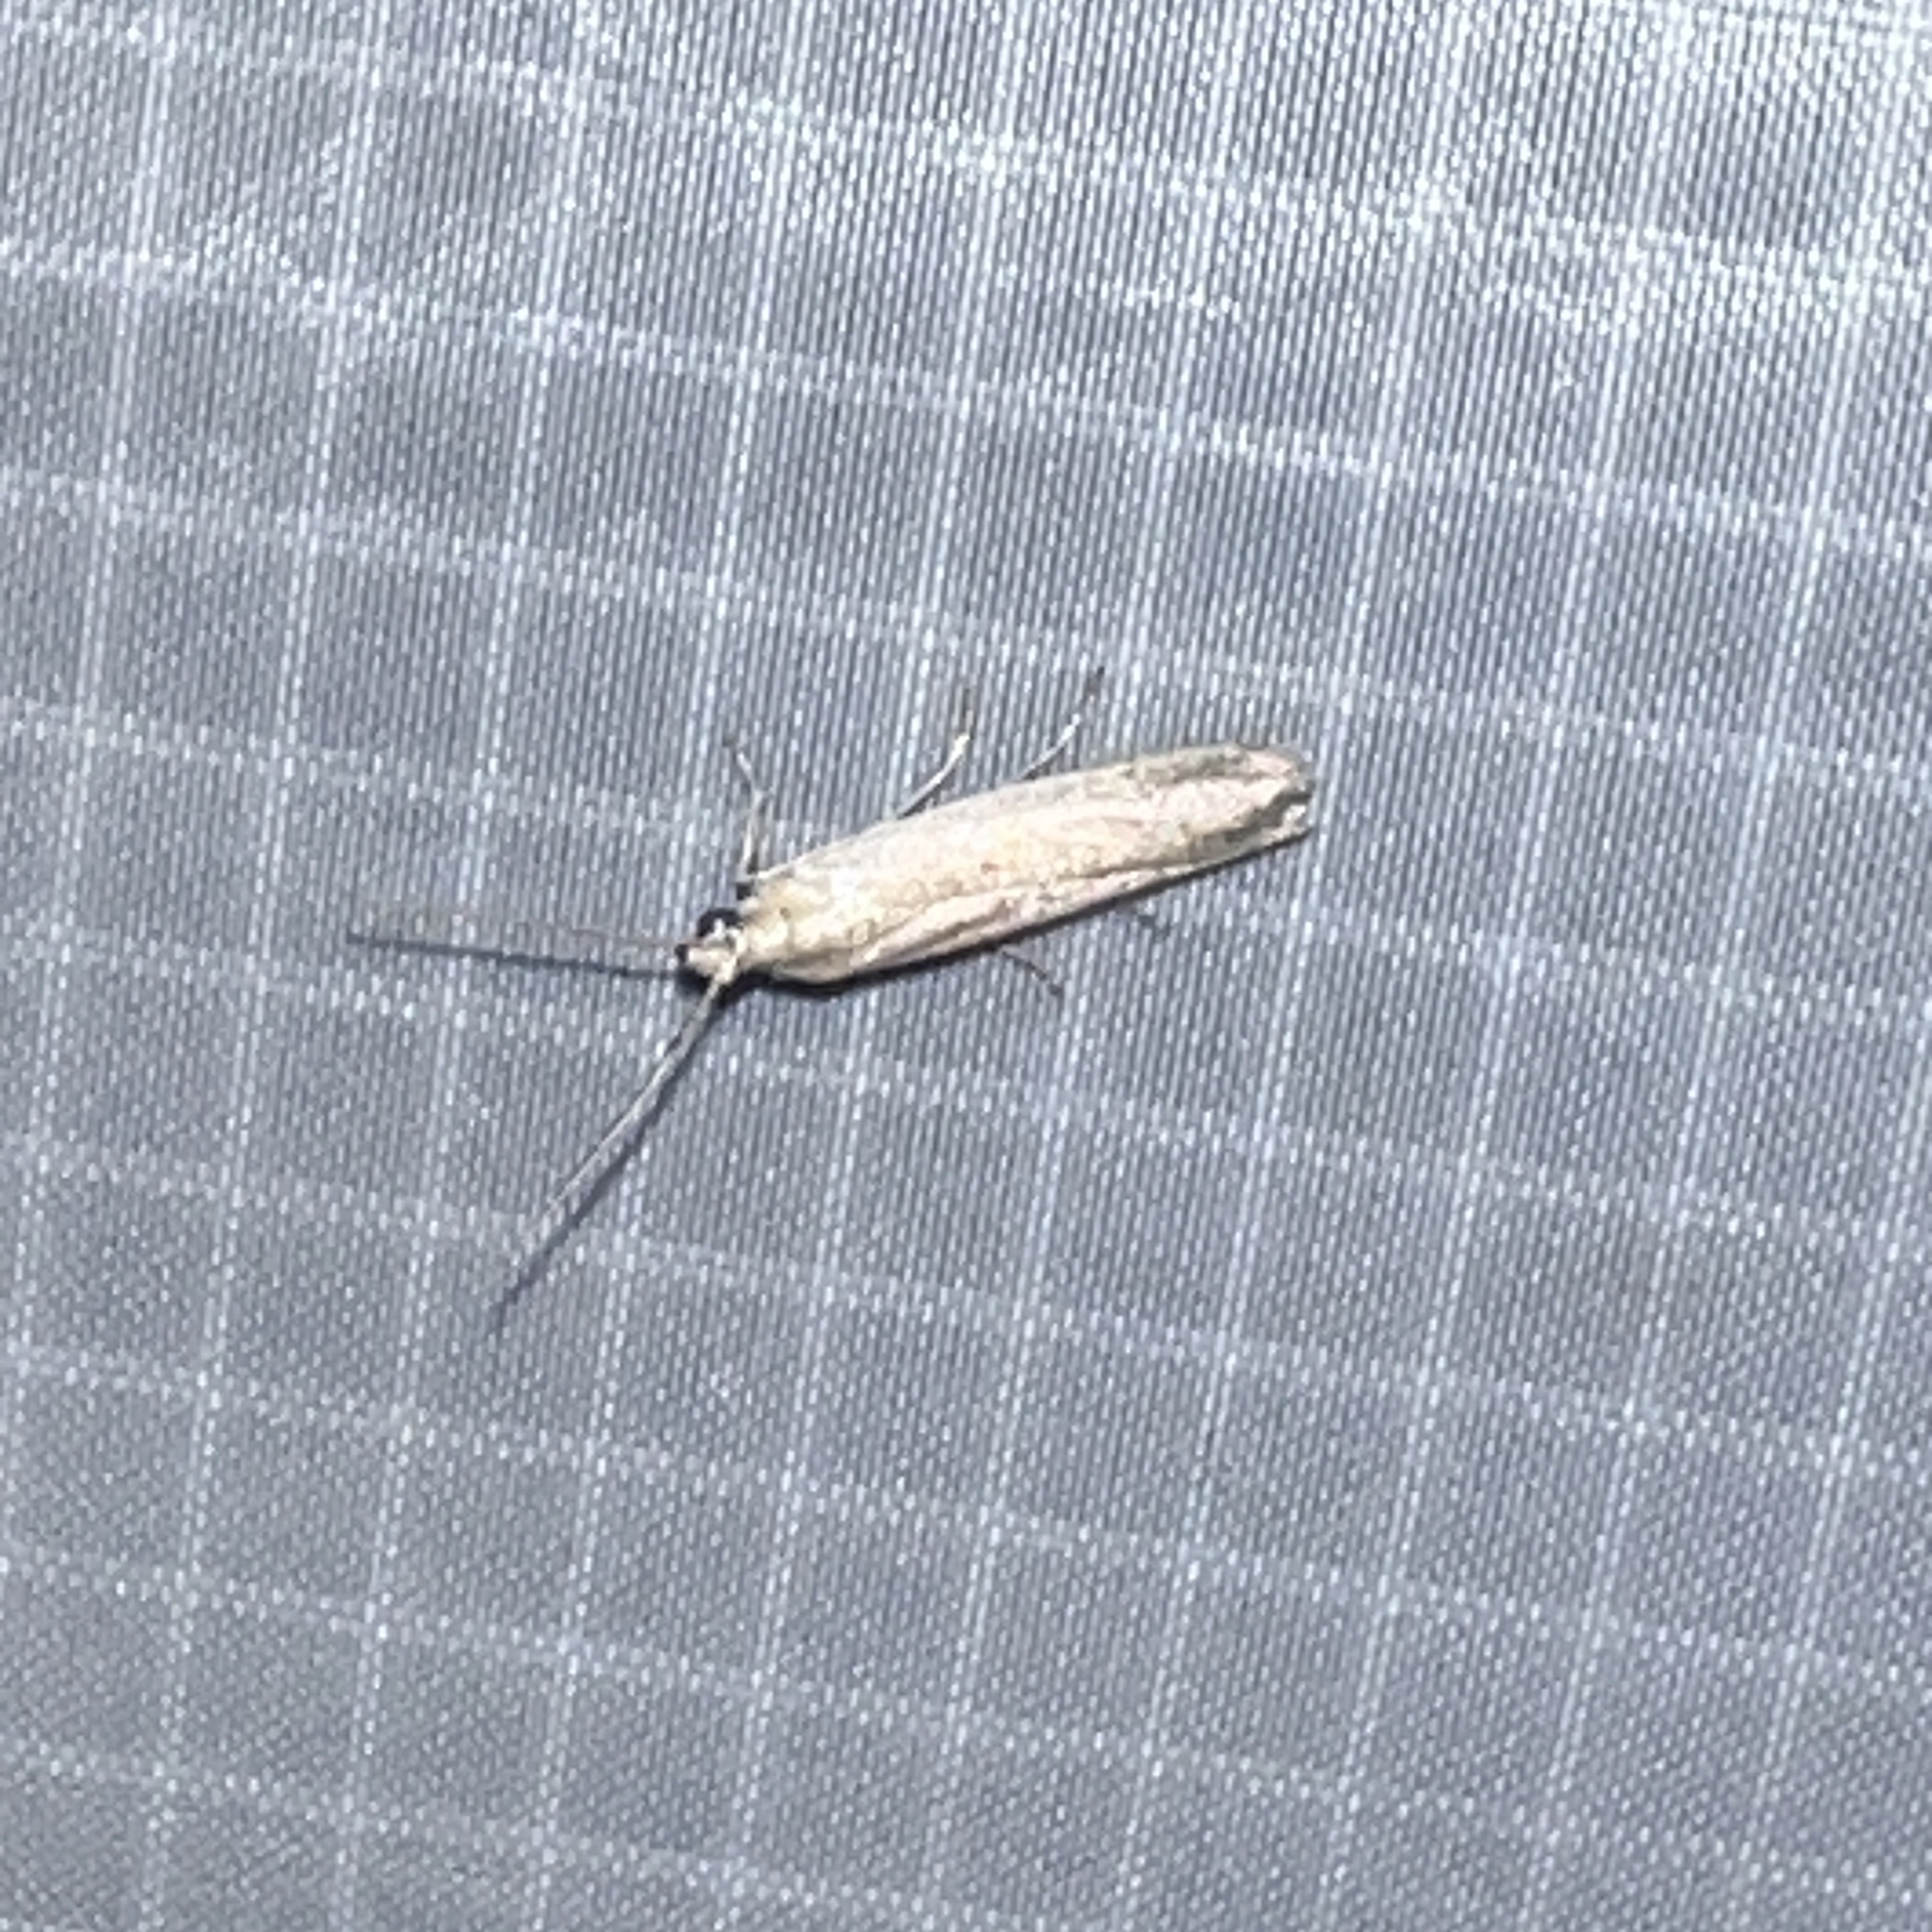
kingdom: Animalia
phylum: Arthropoda
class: Insecta
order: Lepidoptera
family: Pyralidae
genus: Homoeosoma
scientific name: Homoeosoma electella
